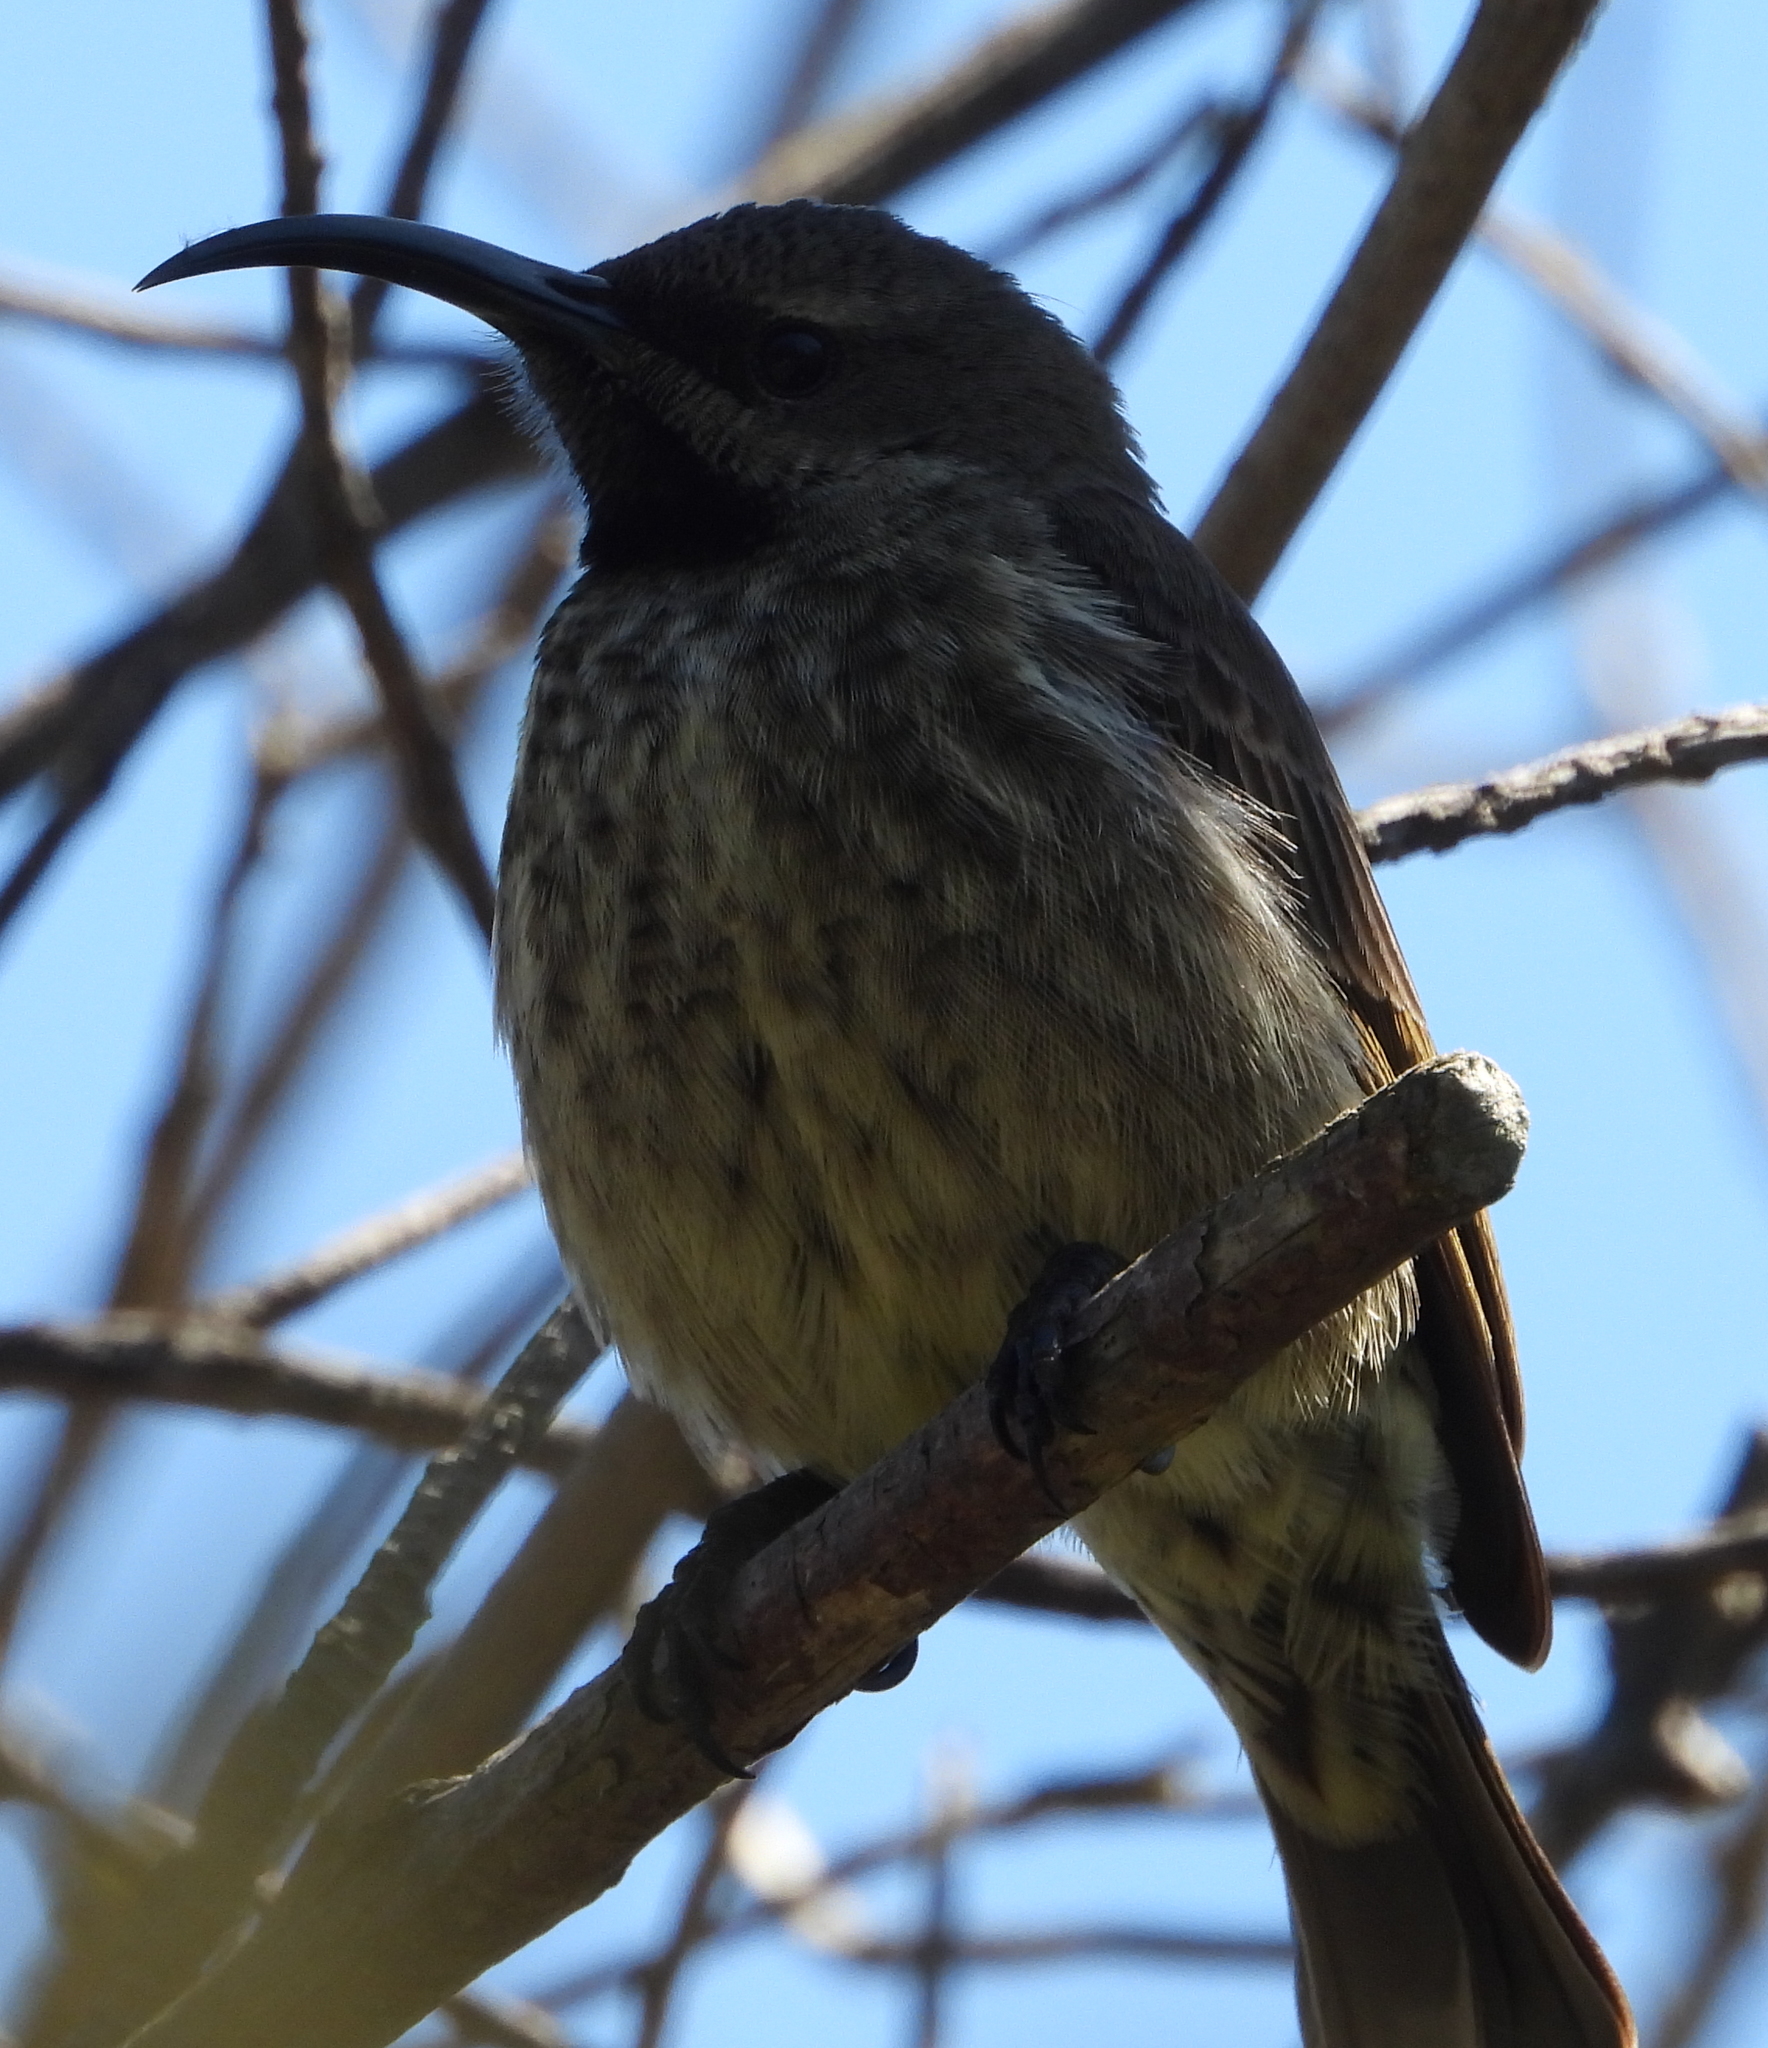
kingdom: Animalia
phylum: Chordata
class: Aves
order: Passeriformes
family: Nectariniidae
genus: Chalcomitra
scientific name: Chalcomitra amethystina
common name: Amethyst sunbird
